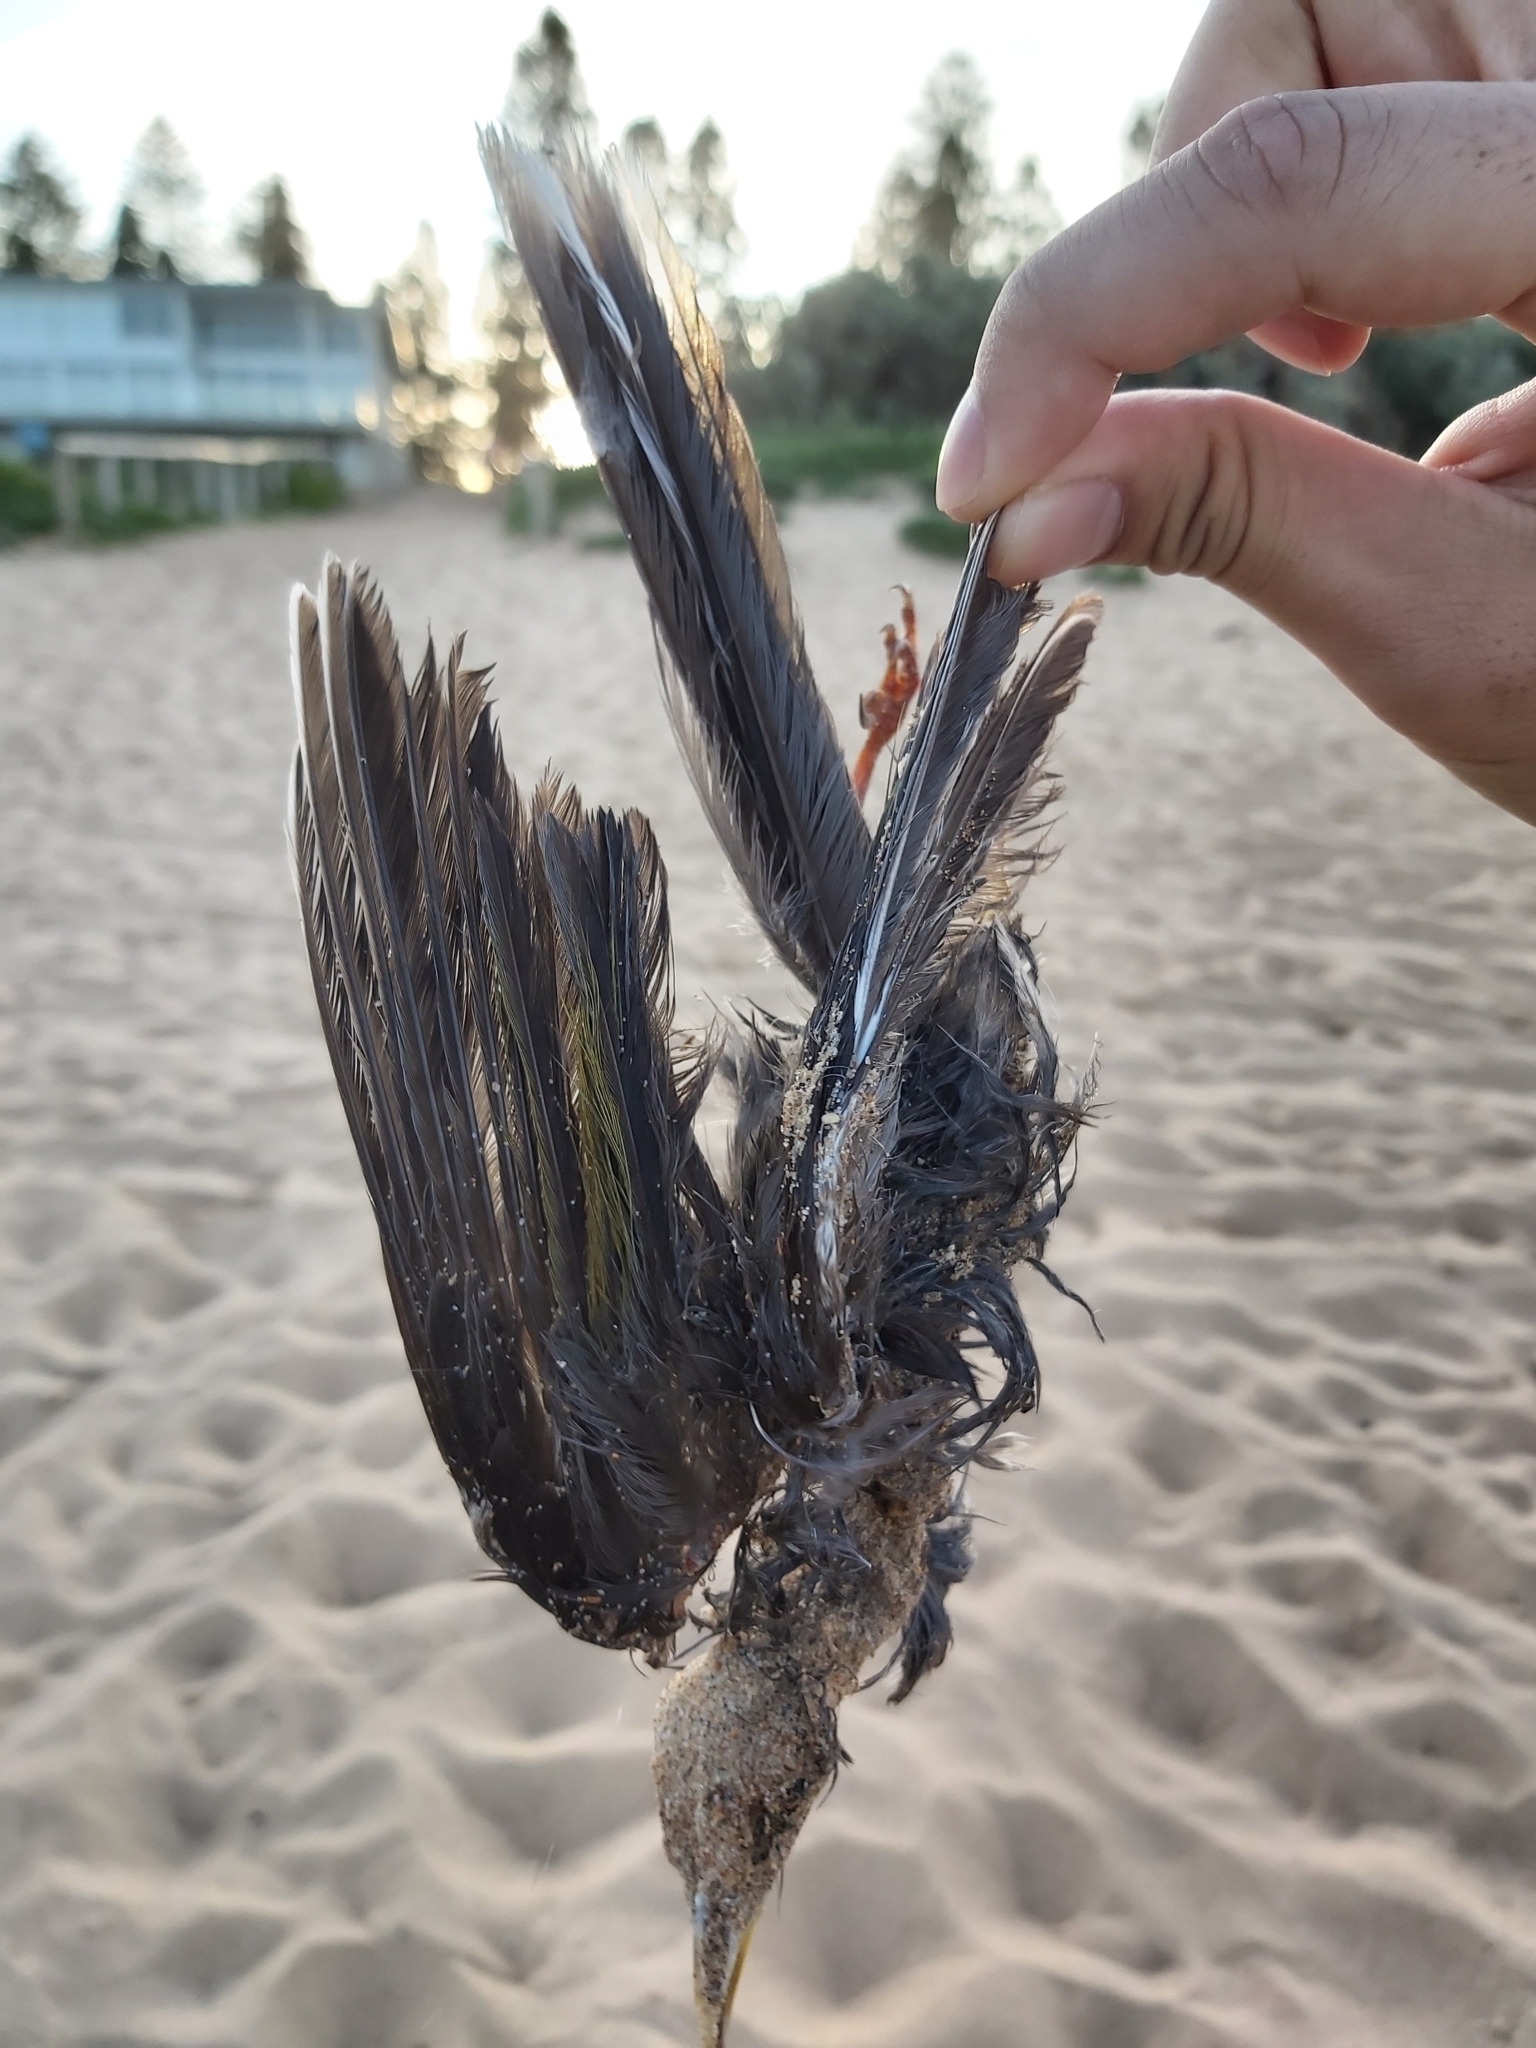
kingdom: Animalia
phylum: Chordata
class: Aves
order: Passeriformes
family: Meliphagidae
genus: Manorina
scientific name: Manorina melanocephala
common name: Noisy miner
